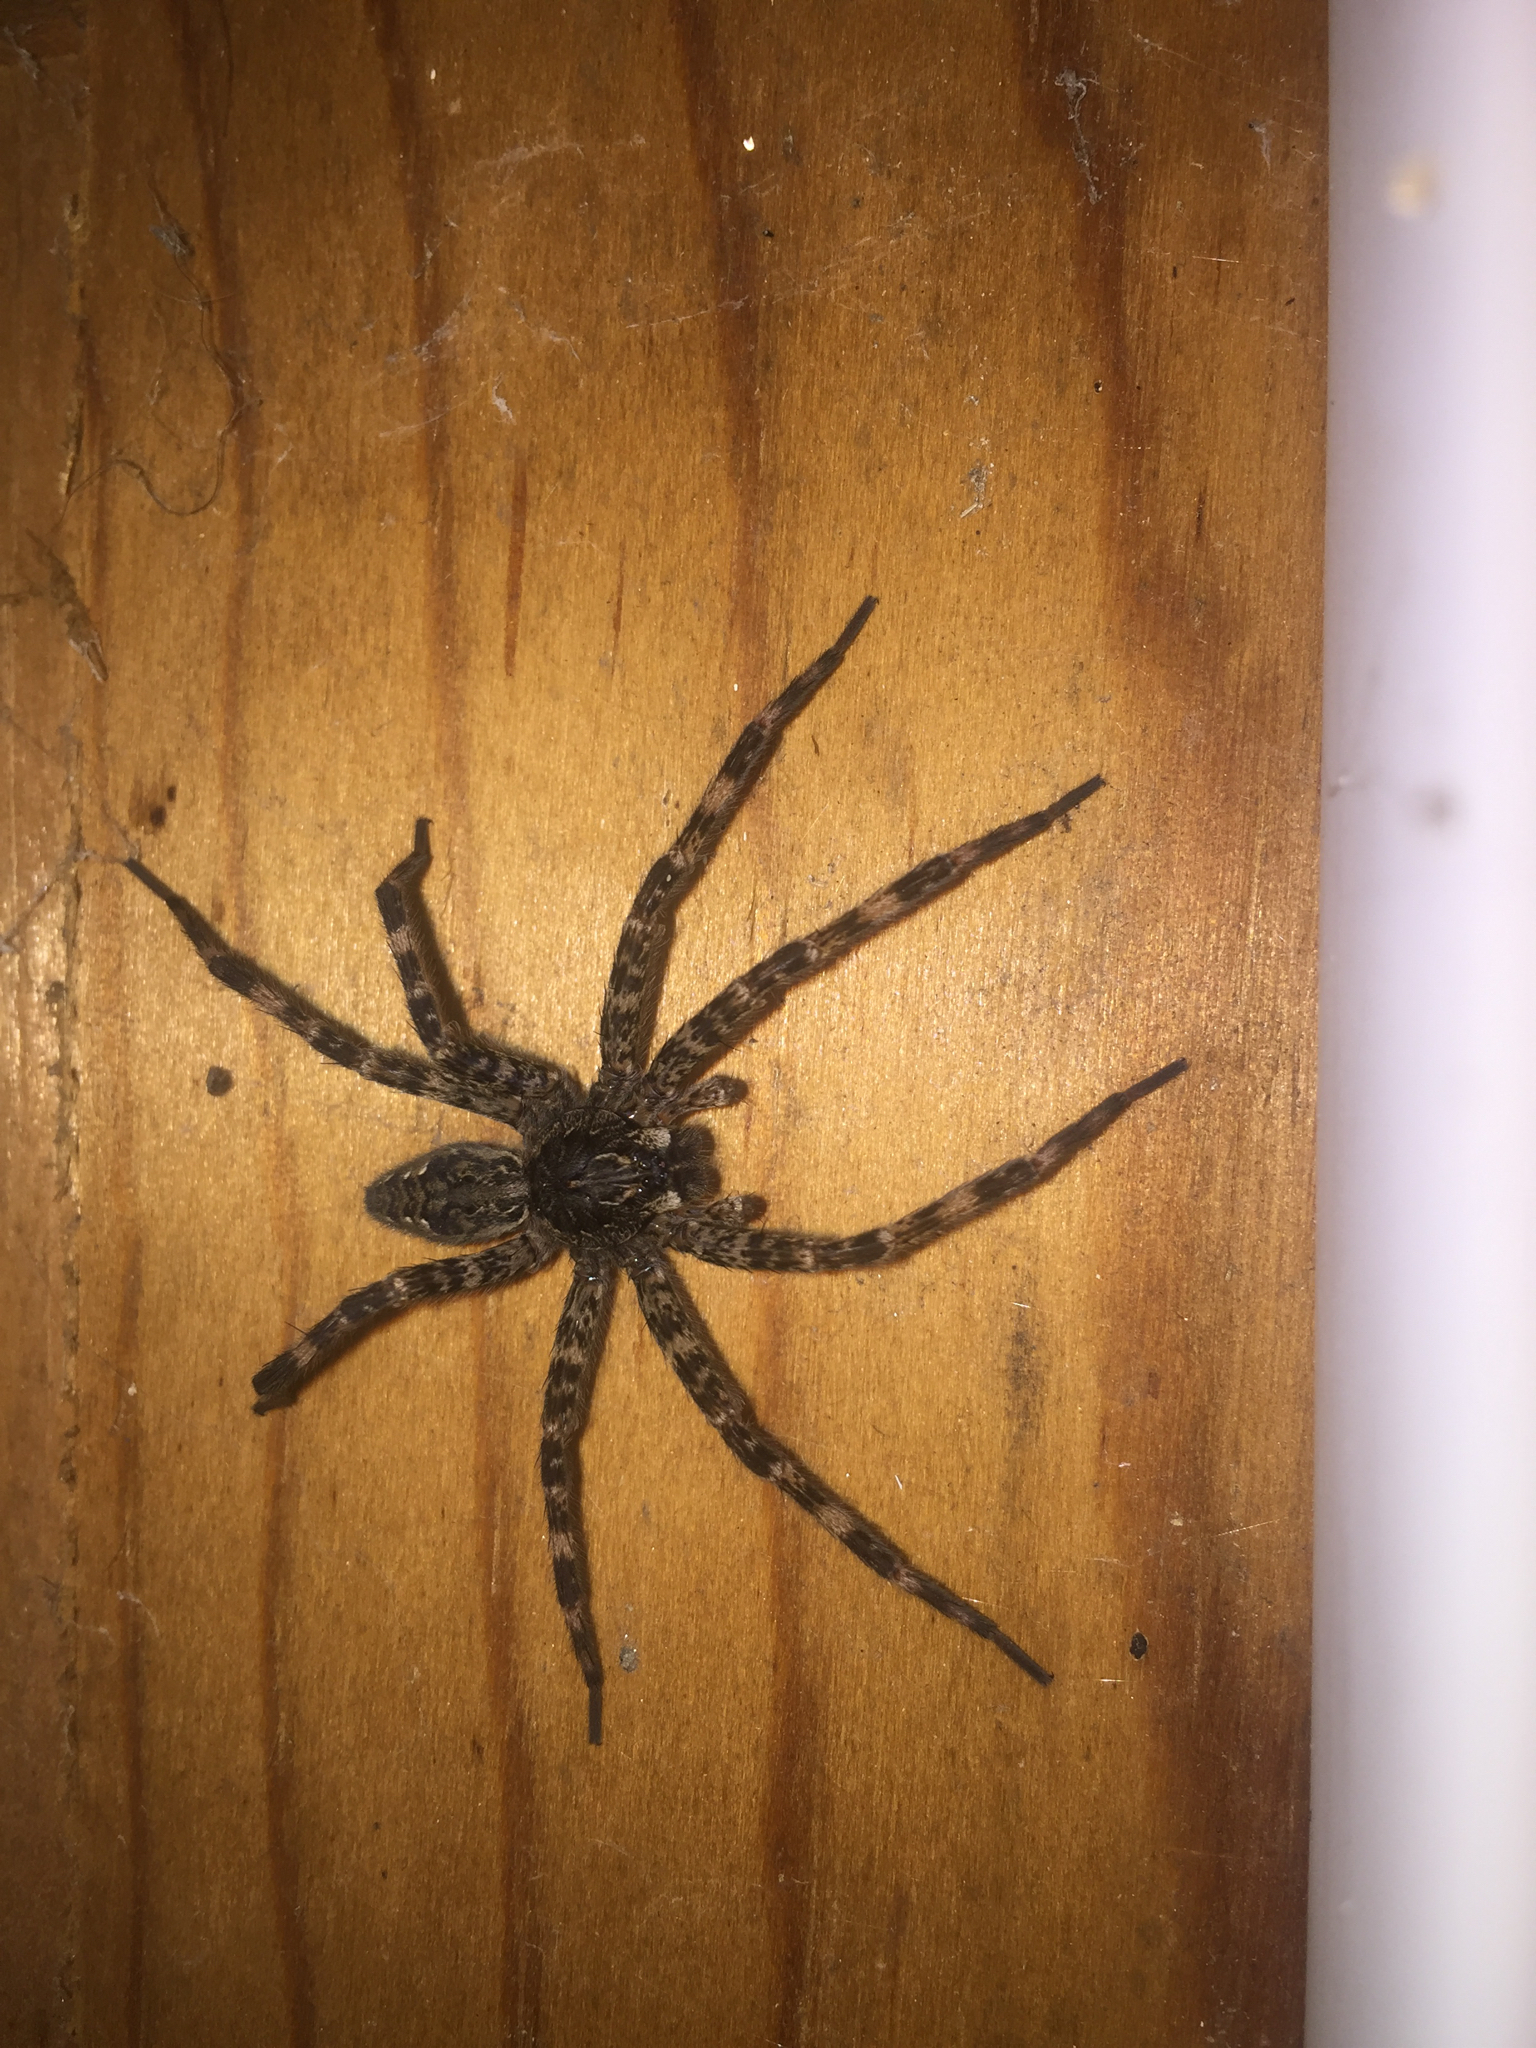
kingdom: Animalia
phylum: Arthropoda
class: Arachnida
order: Araneae
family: Pisauridae
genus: Dolomedes
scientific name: Dolomedes tenebrosus
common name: Dark fishing spider
